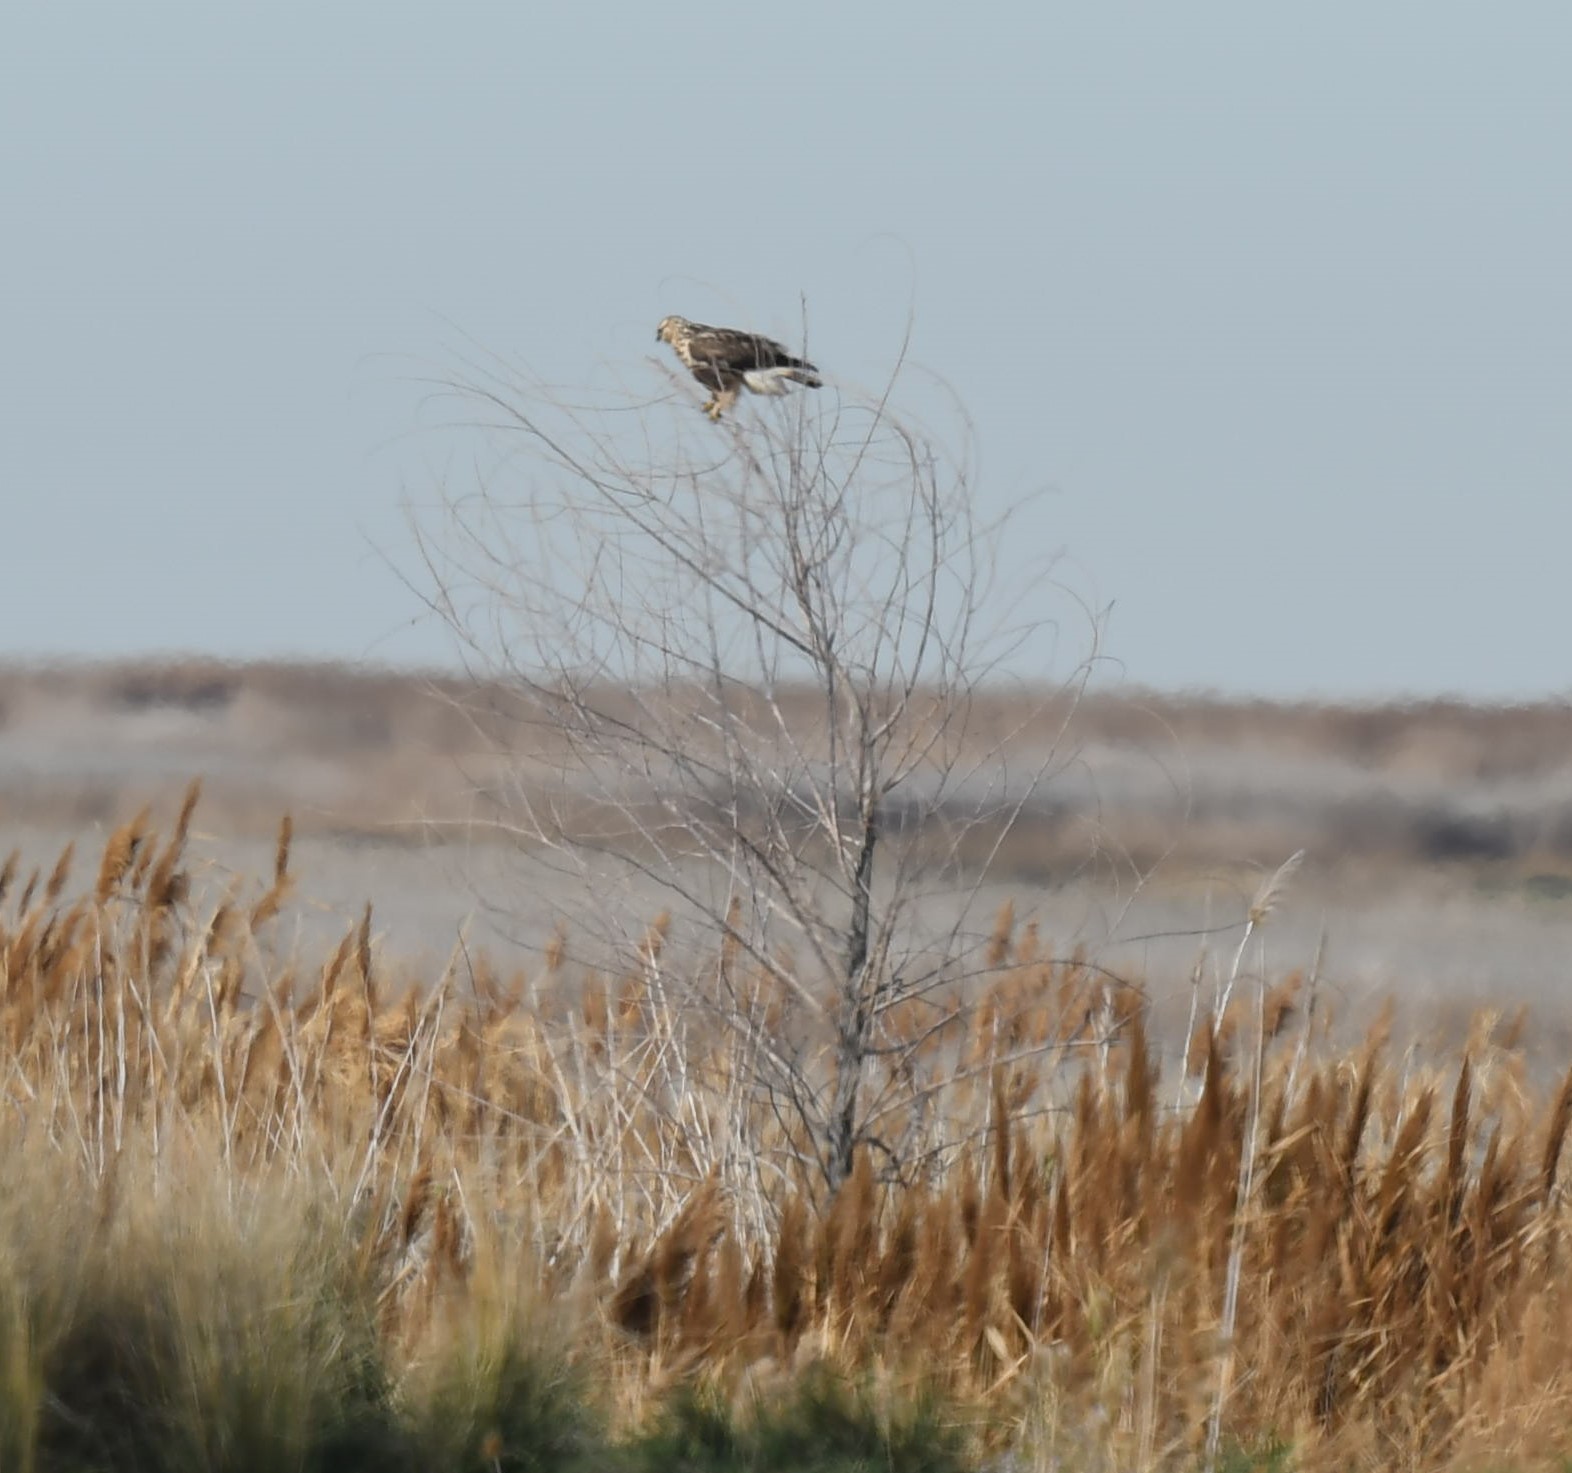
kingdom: Animalia
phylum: Chordata
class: Aves
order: Accipitriformes
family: Accipitridae
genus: Buteo
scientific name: Buteo lagopus
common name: Rough-legged buzzard
